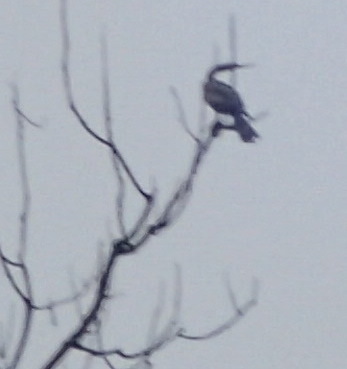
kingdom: Animalia
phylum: Chordata
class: Aves
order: Suliformes
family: Anhingidae
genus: Anhinga
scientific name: Anhinga anhinga
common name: Anhinga
